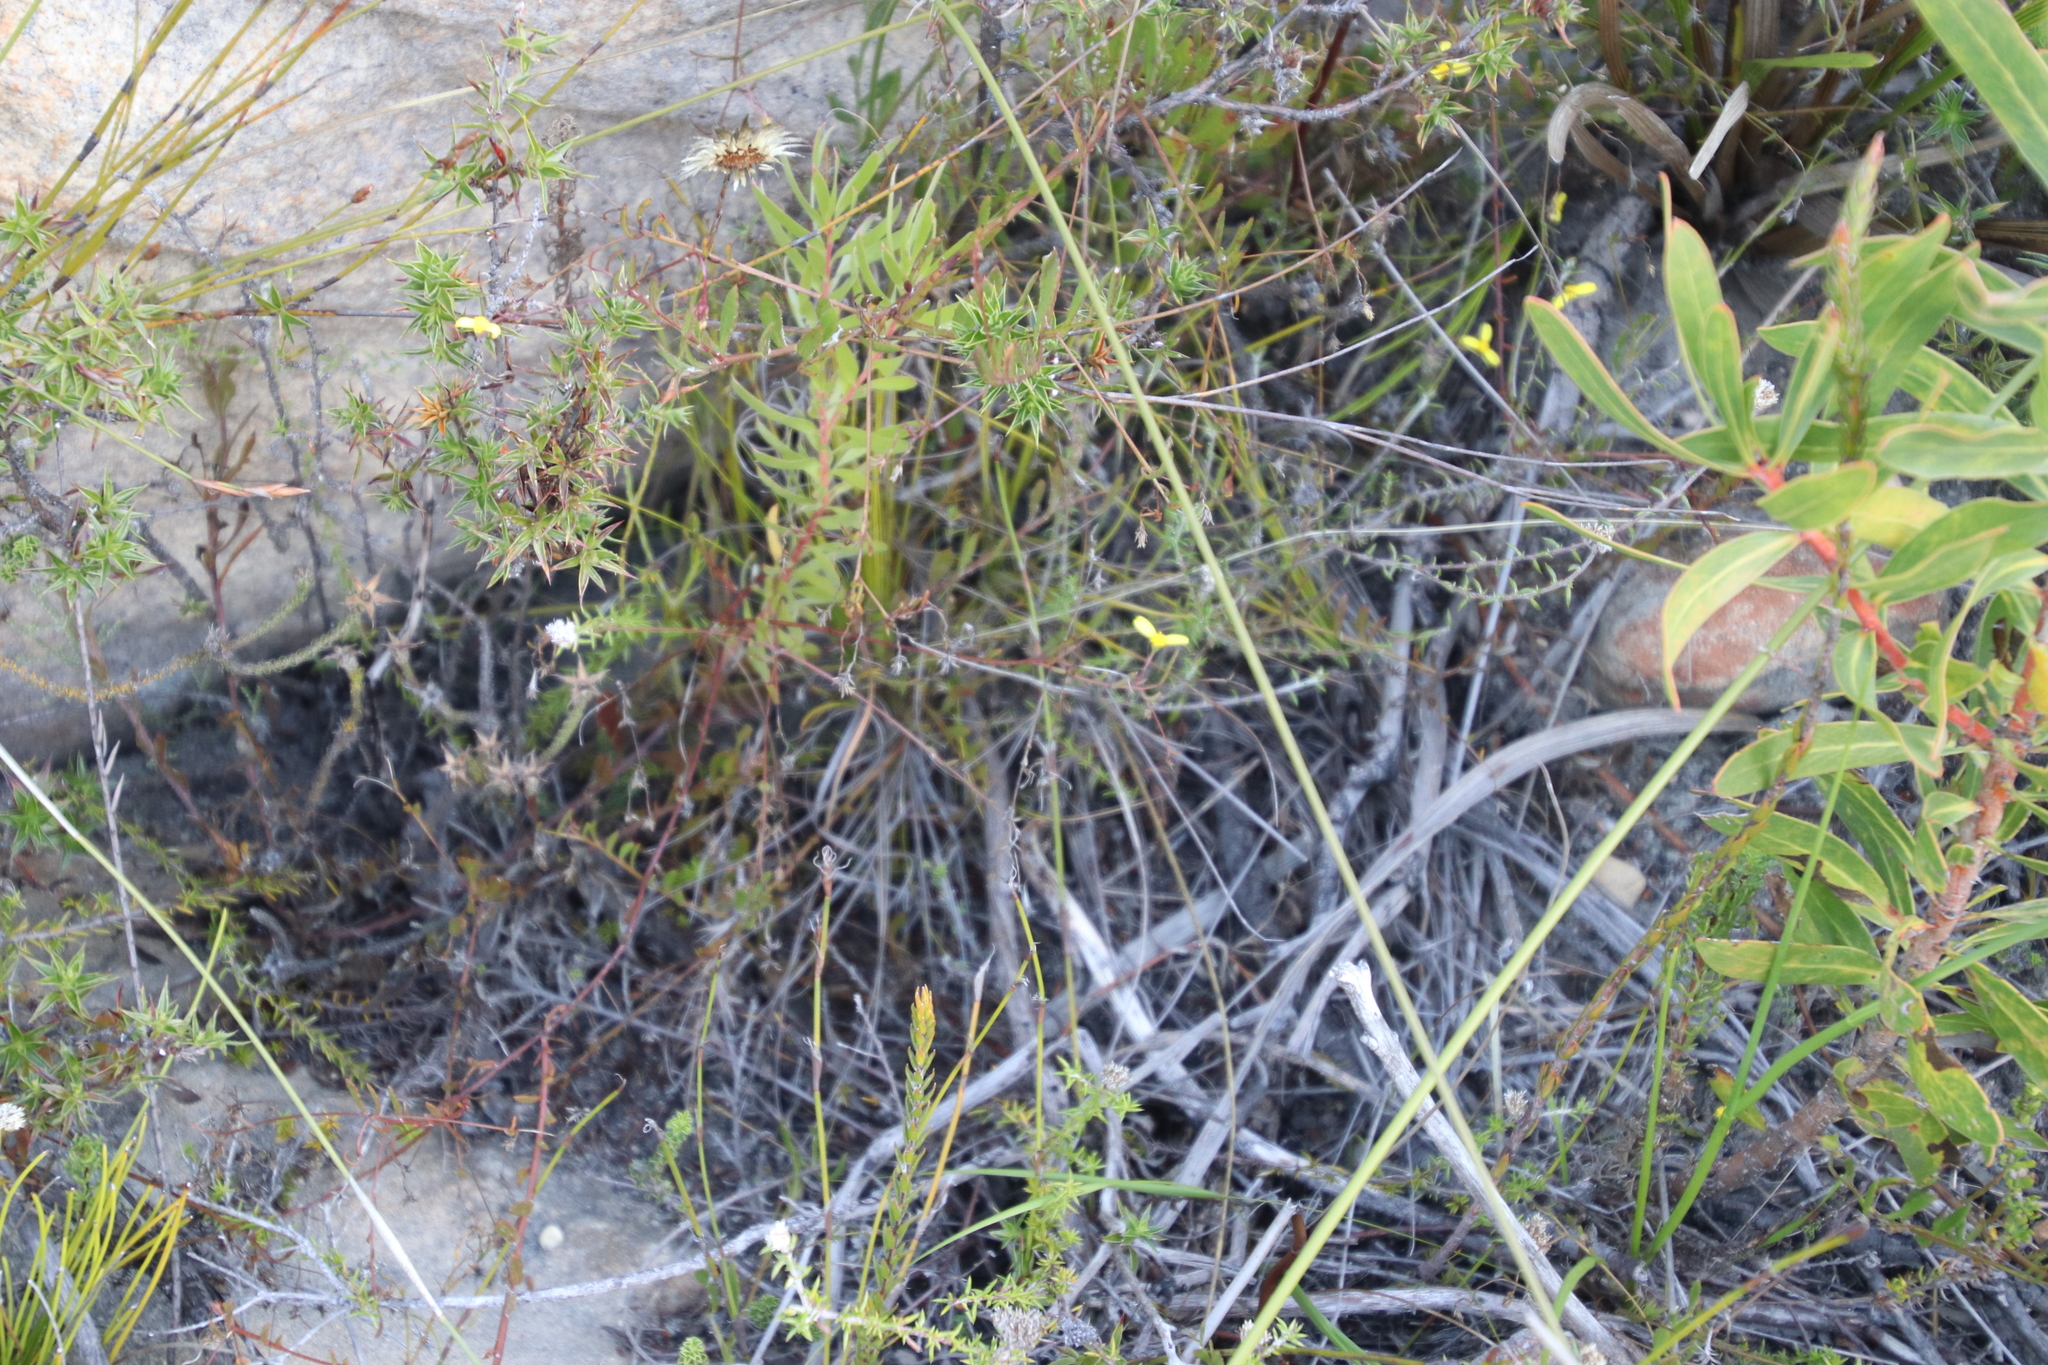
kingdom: Plantae
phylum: Tracheophyta
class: Magnoliopsida
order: Asterales
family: Asteraceae
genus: Osteospermum
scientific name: Osteospermum ciliatum
